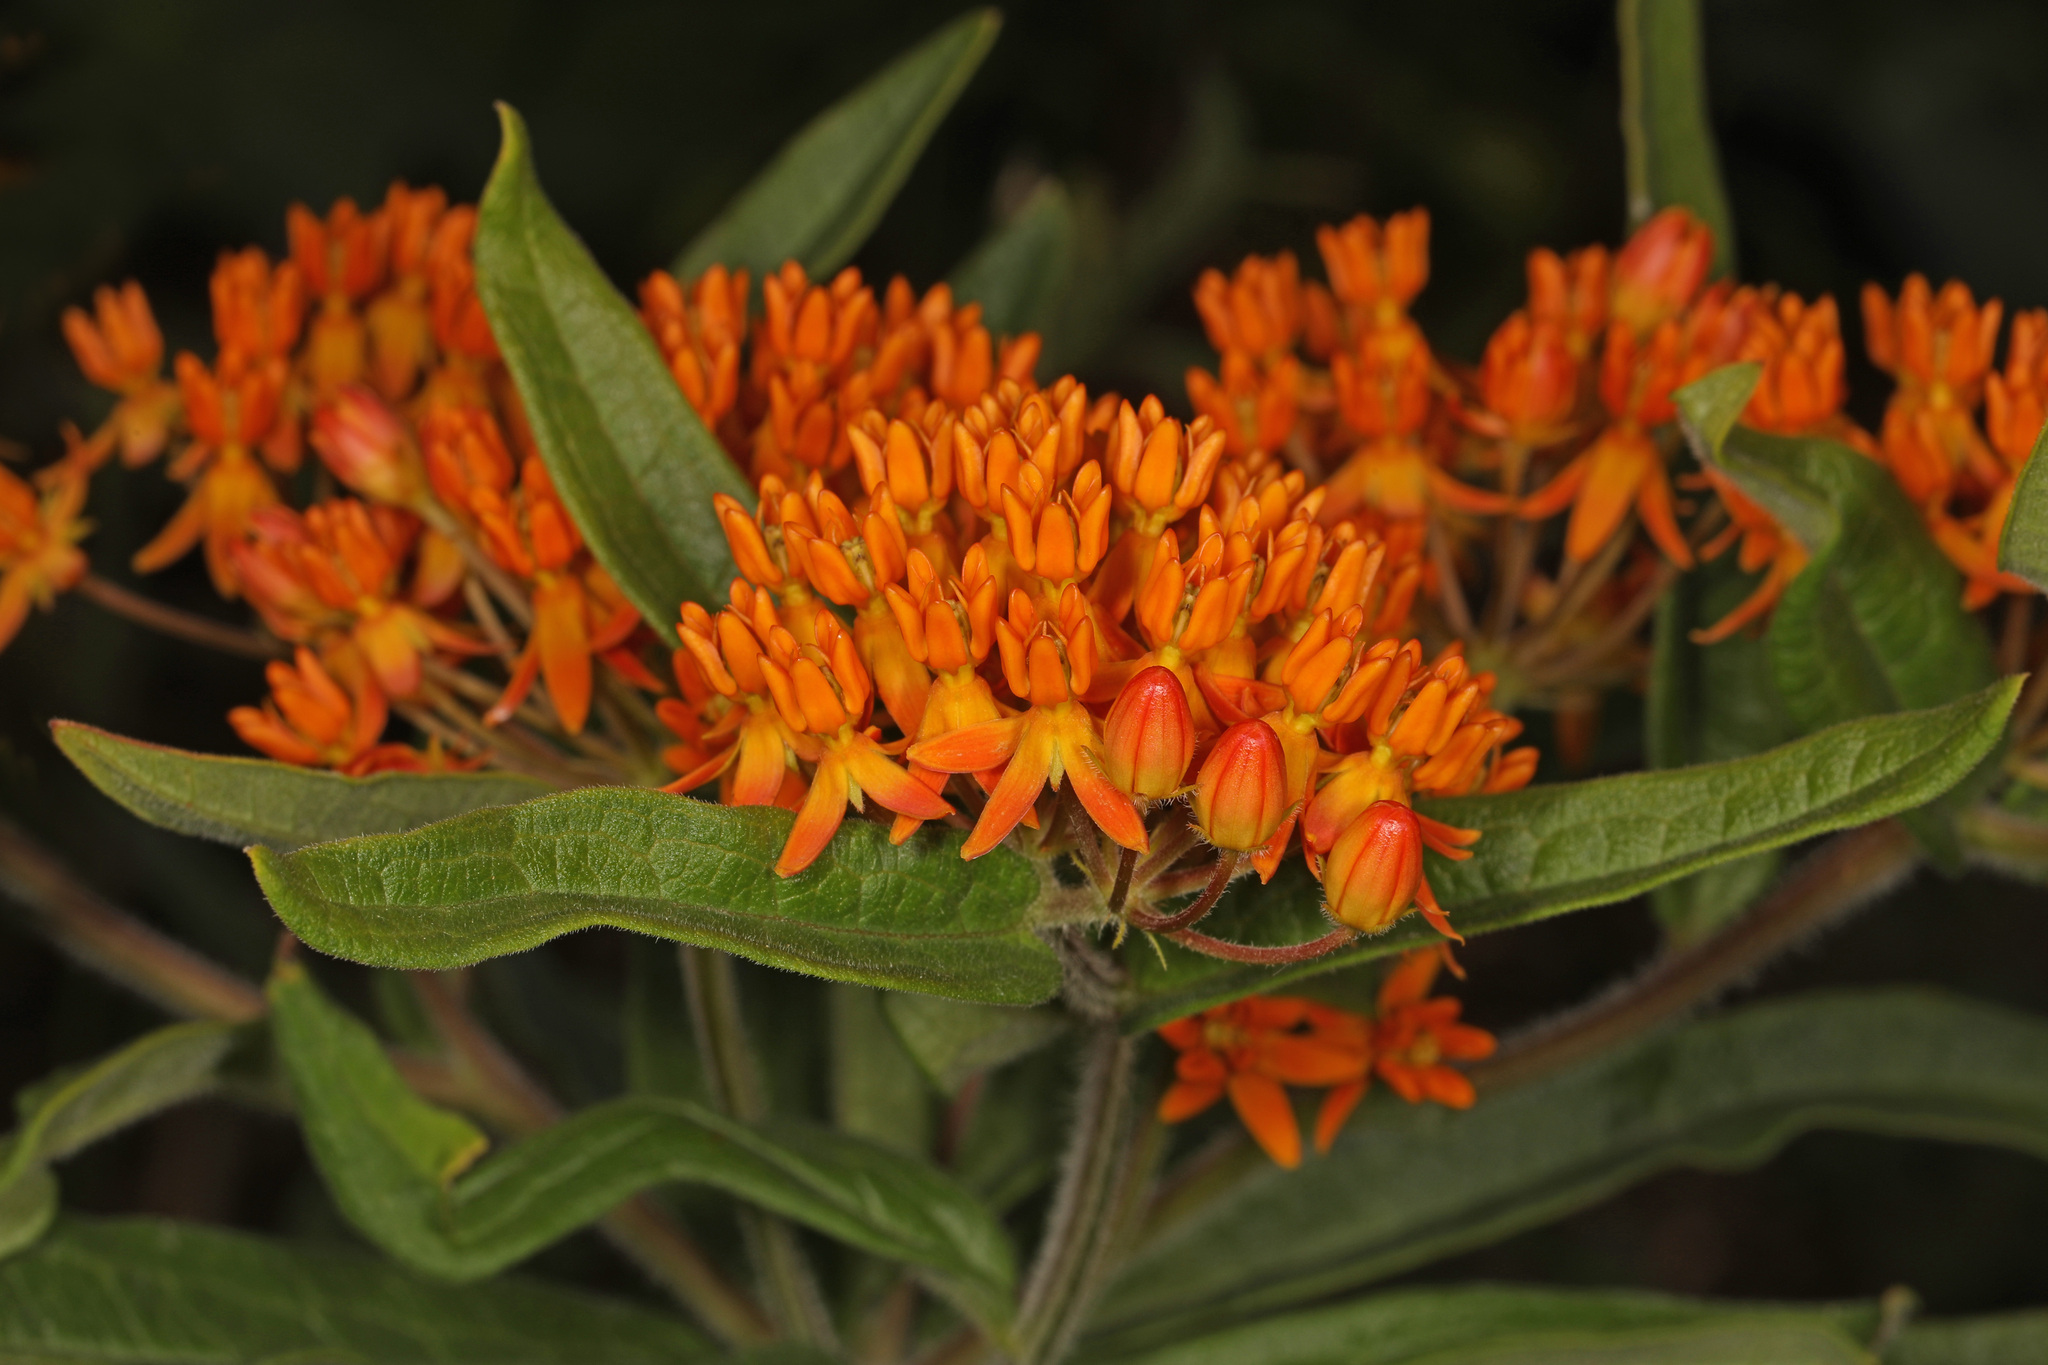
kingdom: Plantae
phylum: Tracheophyta
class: Magnoliopsida
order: Gentianales
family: Apocynaceae
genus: Asclepias
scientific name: Asclepias tuberosa
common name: Butterfly milkweed
